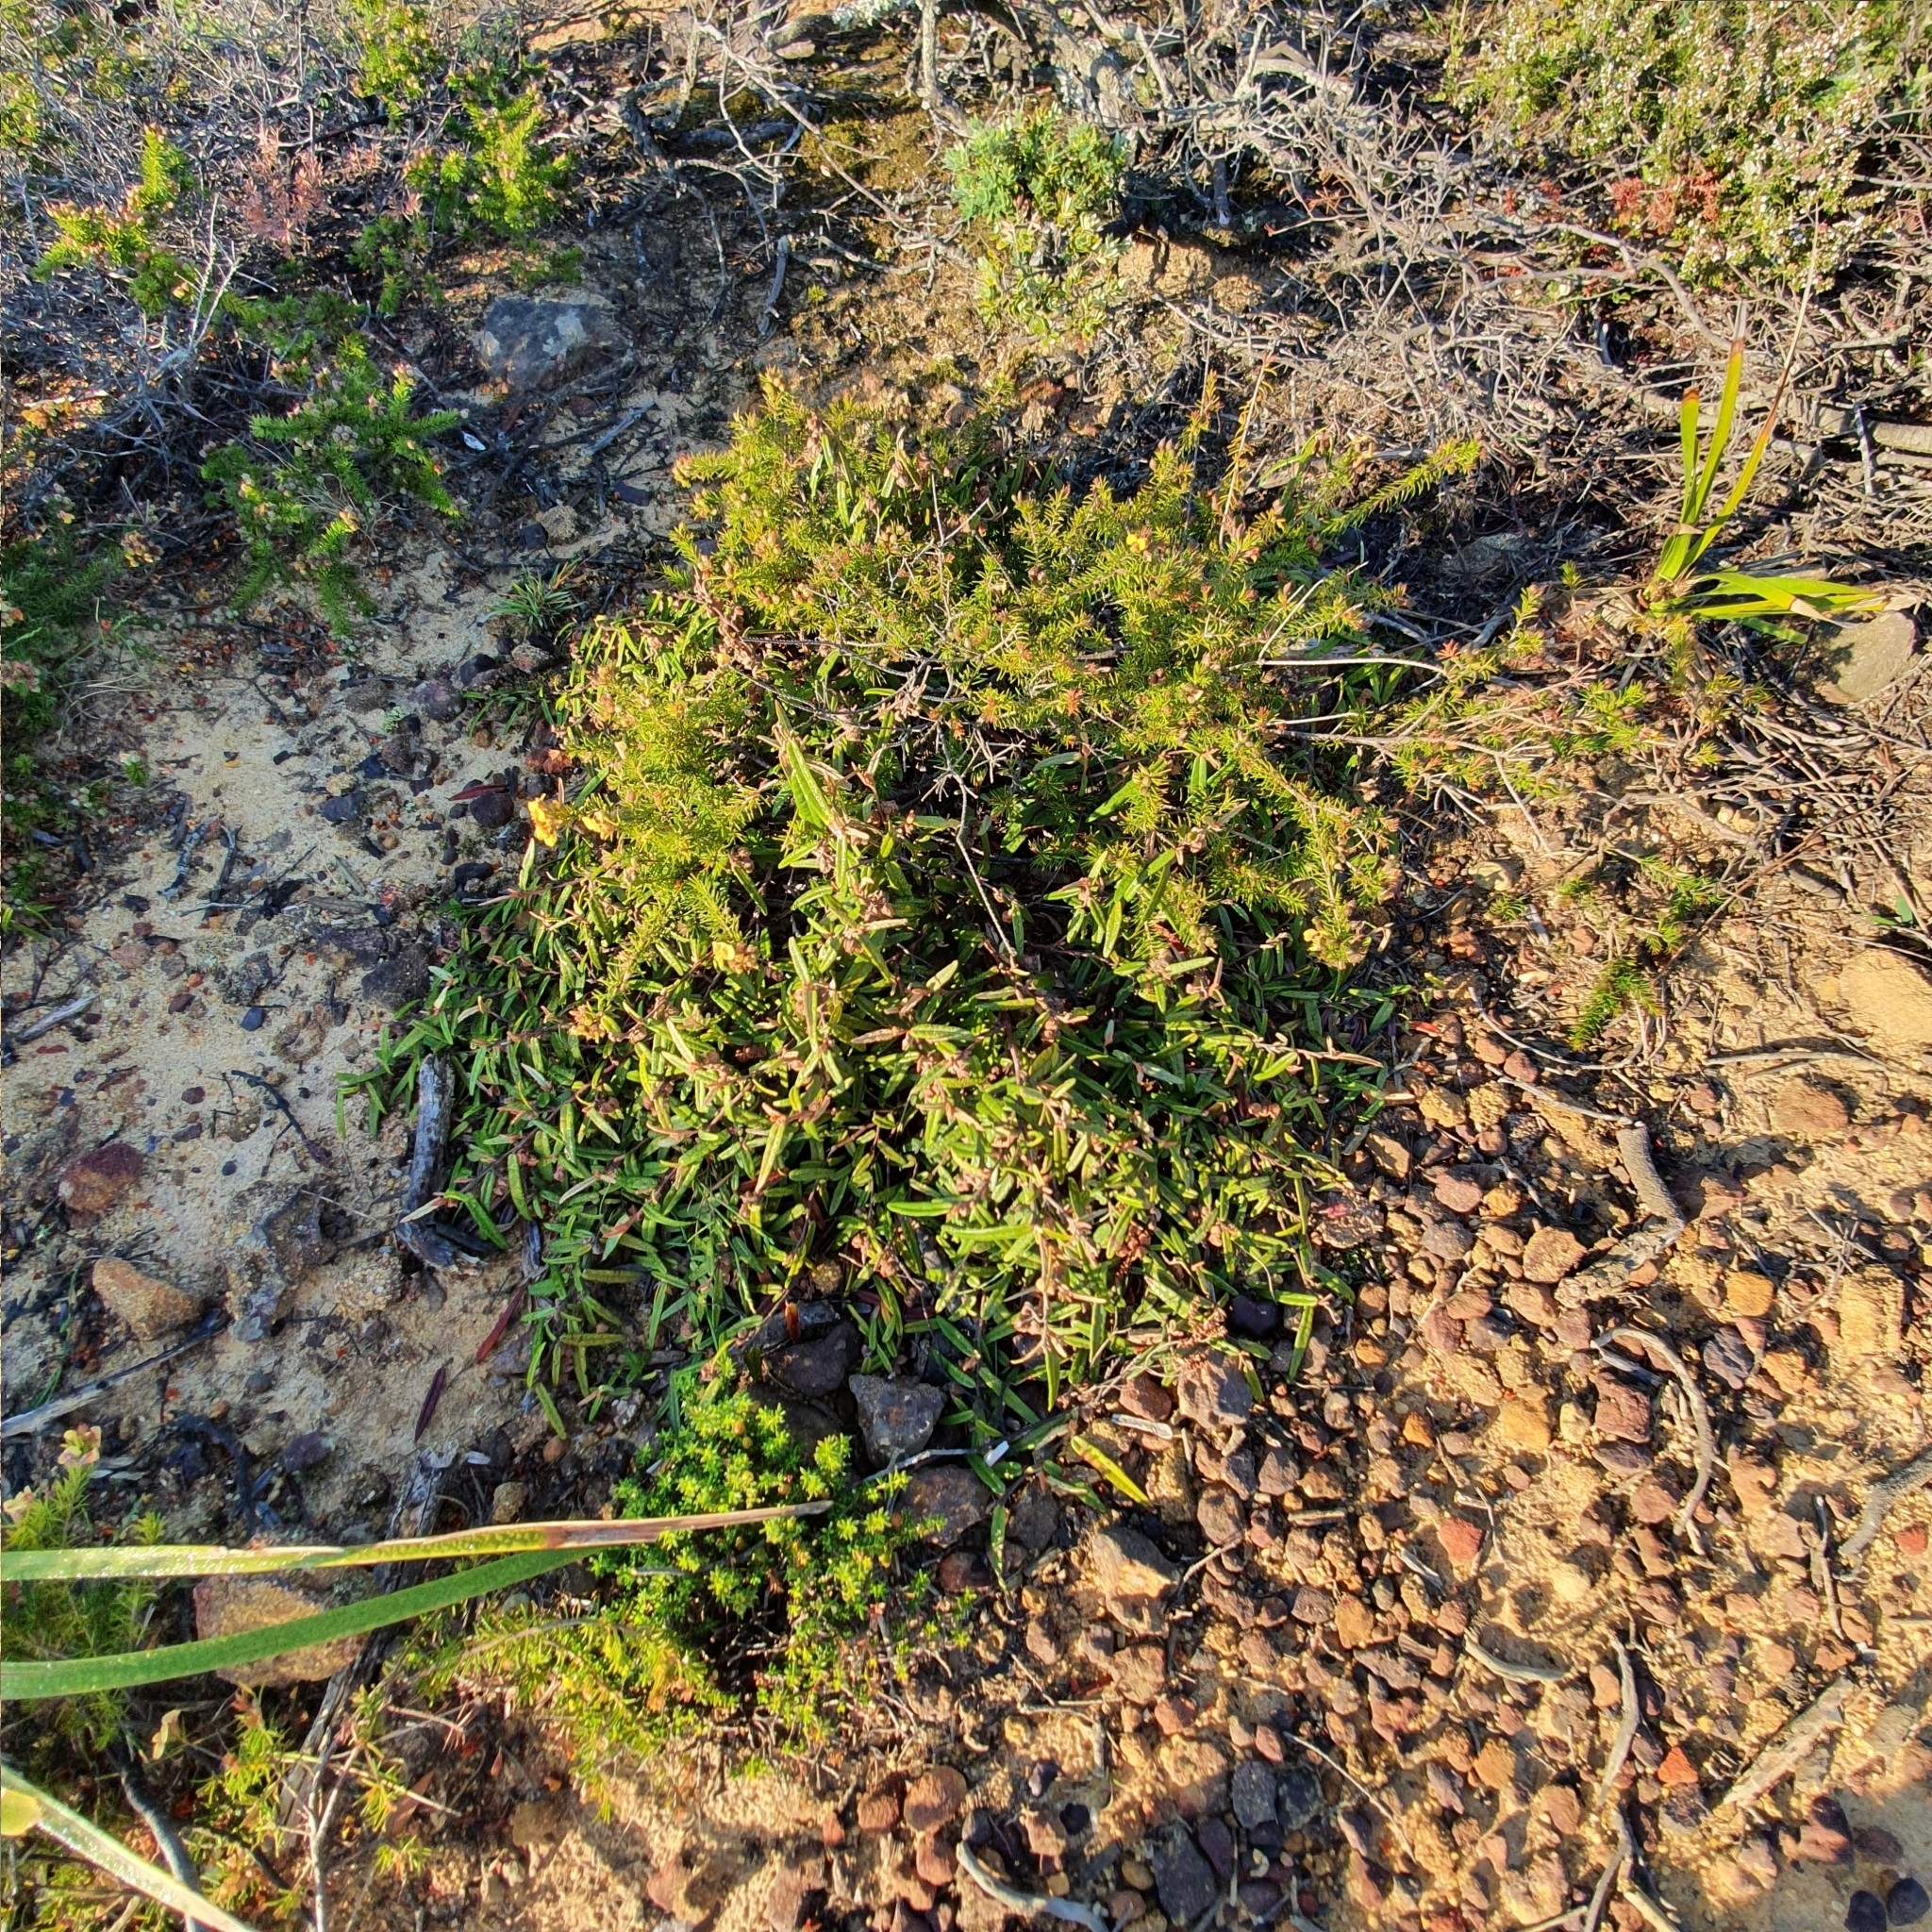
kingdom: Plantae
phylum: Tracheophyta
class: Magnoliopsida
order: Malvales
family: Malvaceae
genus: Lasiopetalum
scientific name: Lasiopetalum ferrugineum
